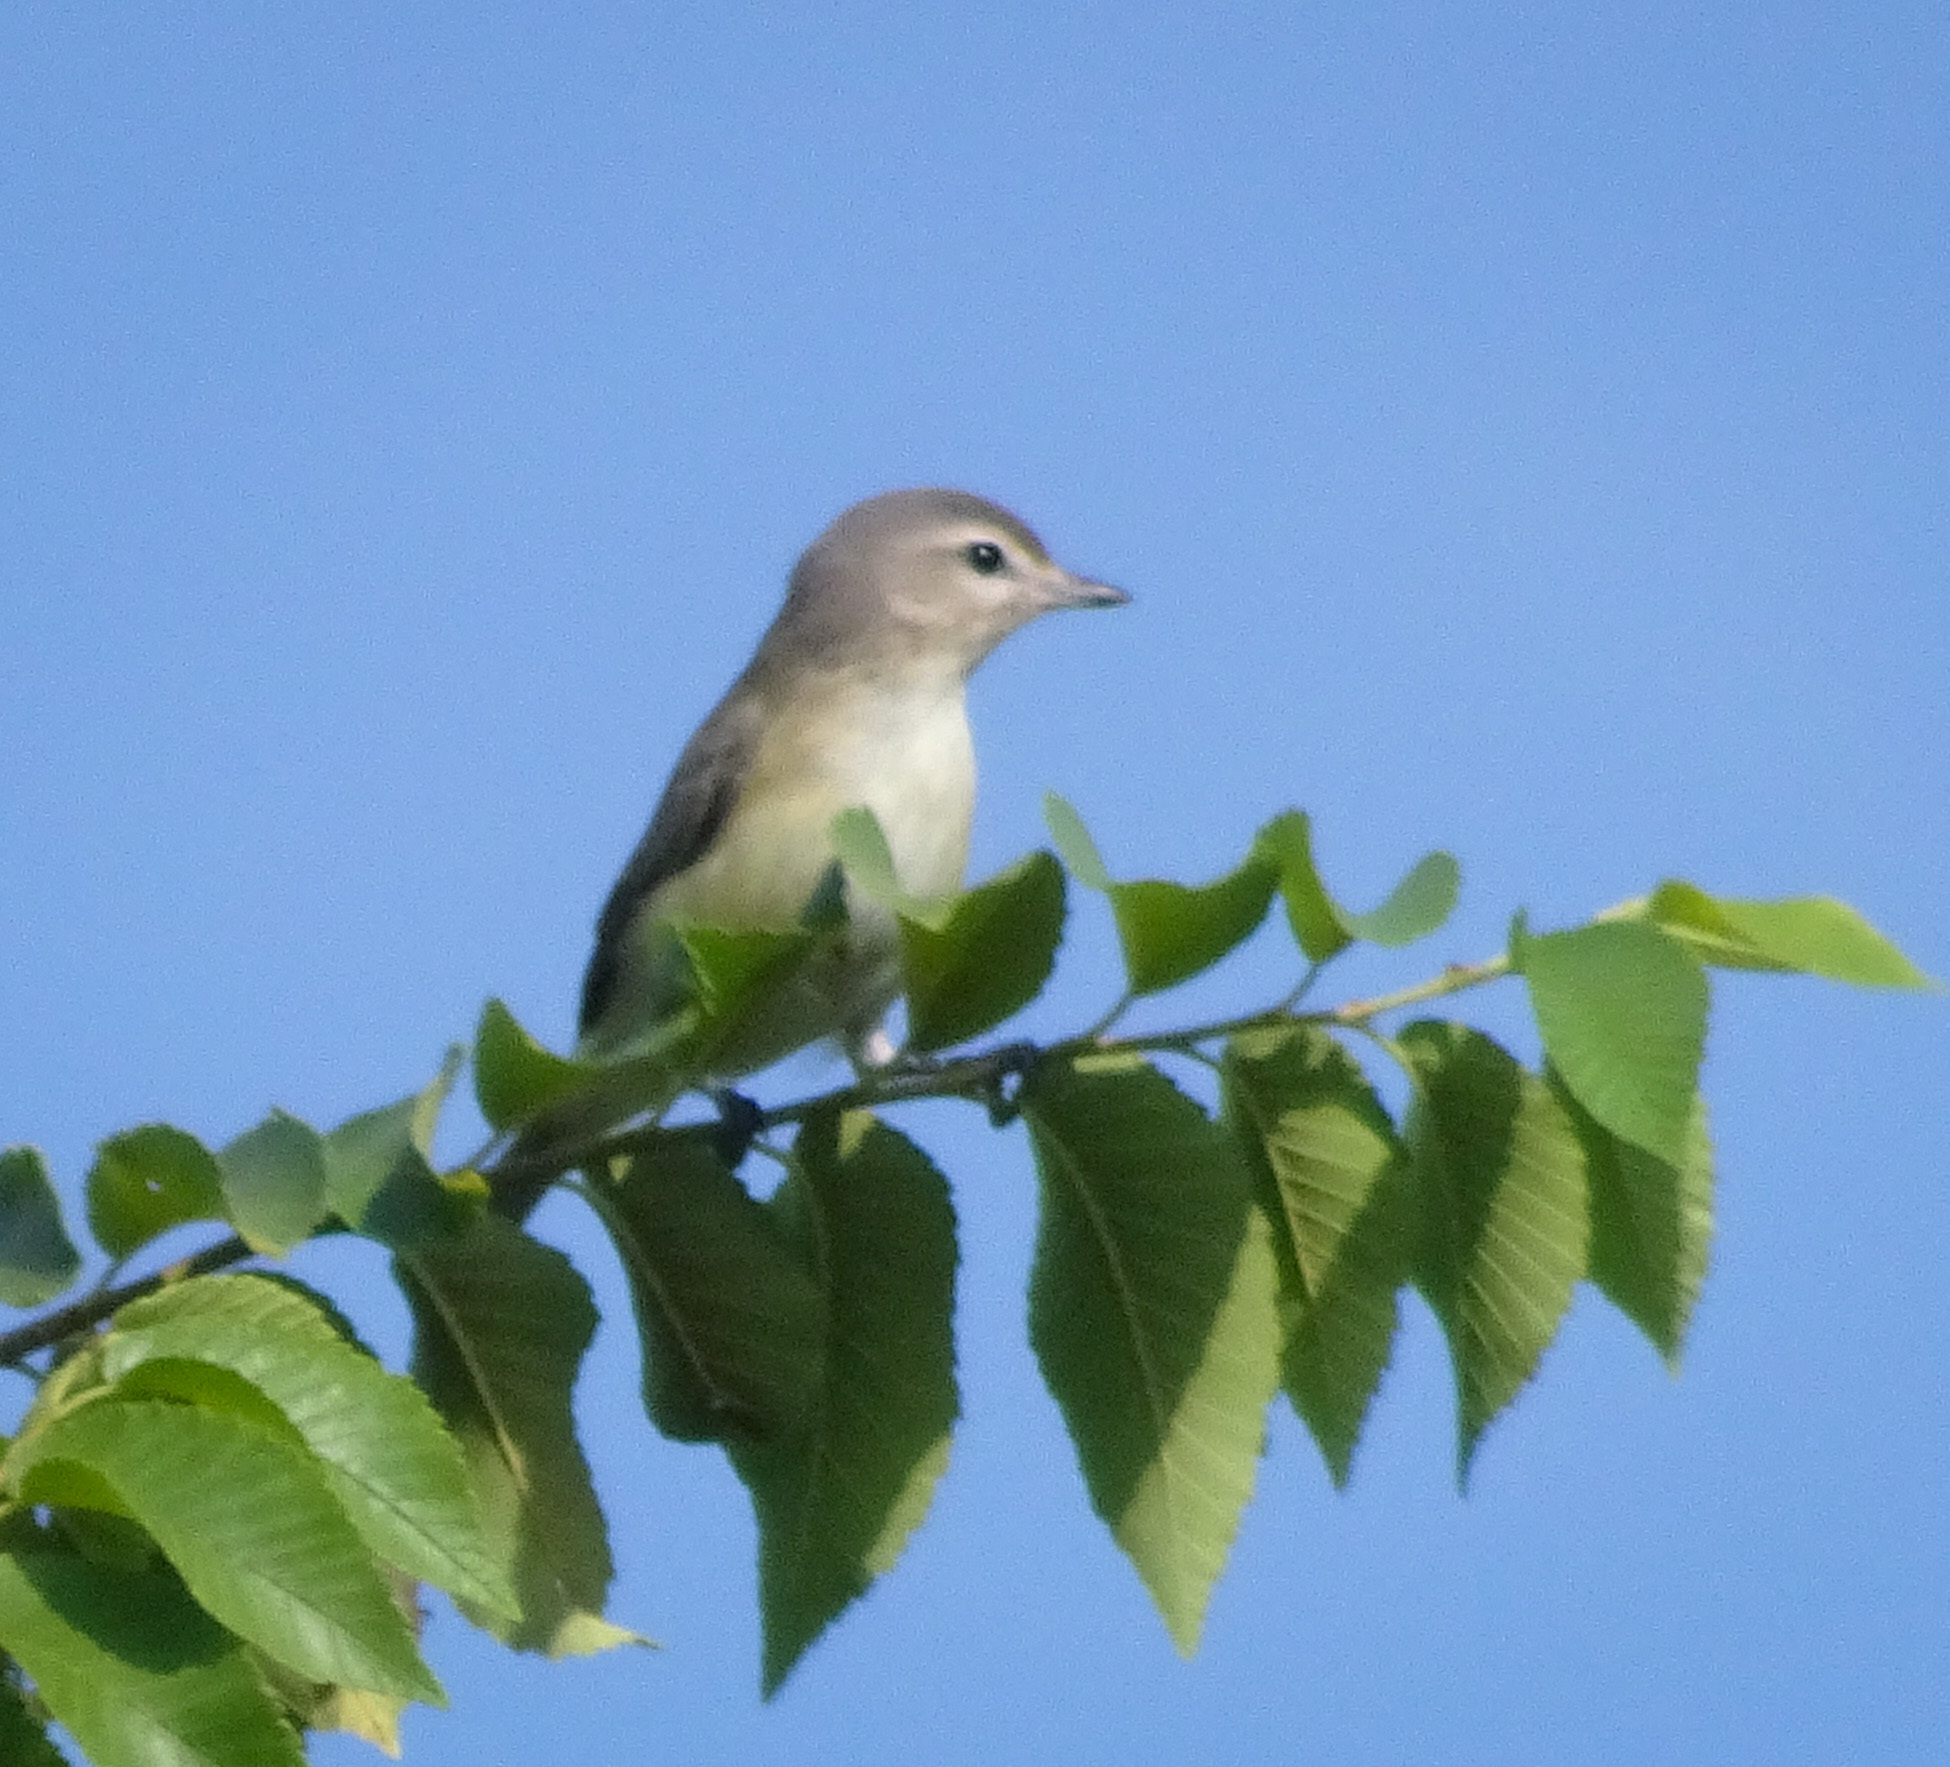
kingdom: Animalia
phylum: Chordata
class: Aves
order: Passeriformes
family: Vireonidae
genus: Vireo
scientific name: Vireo gilvus
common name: Warbling vireo
